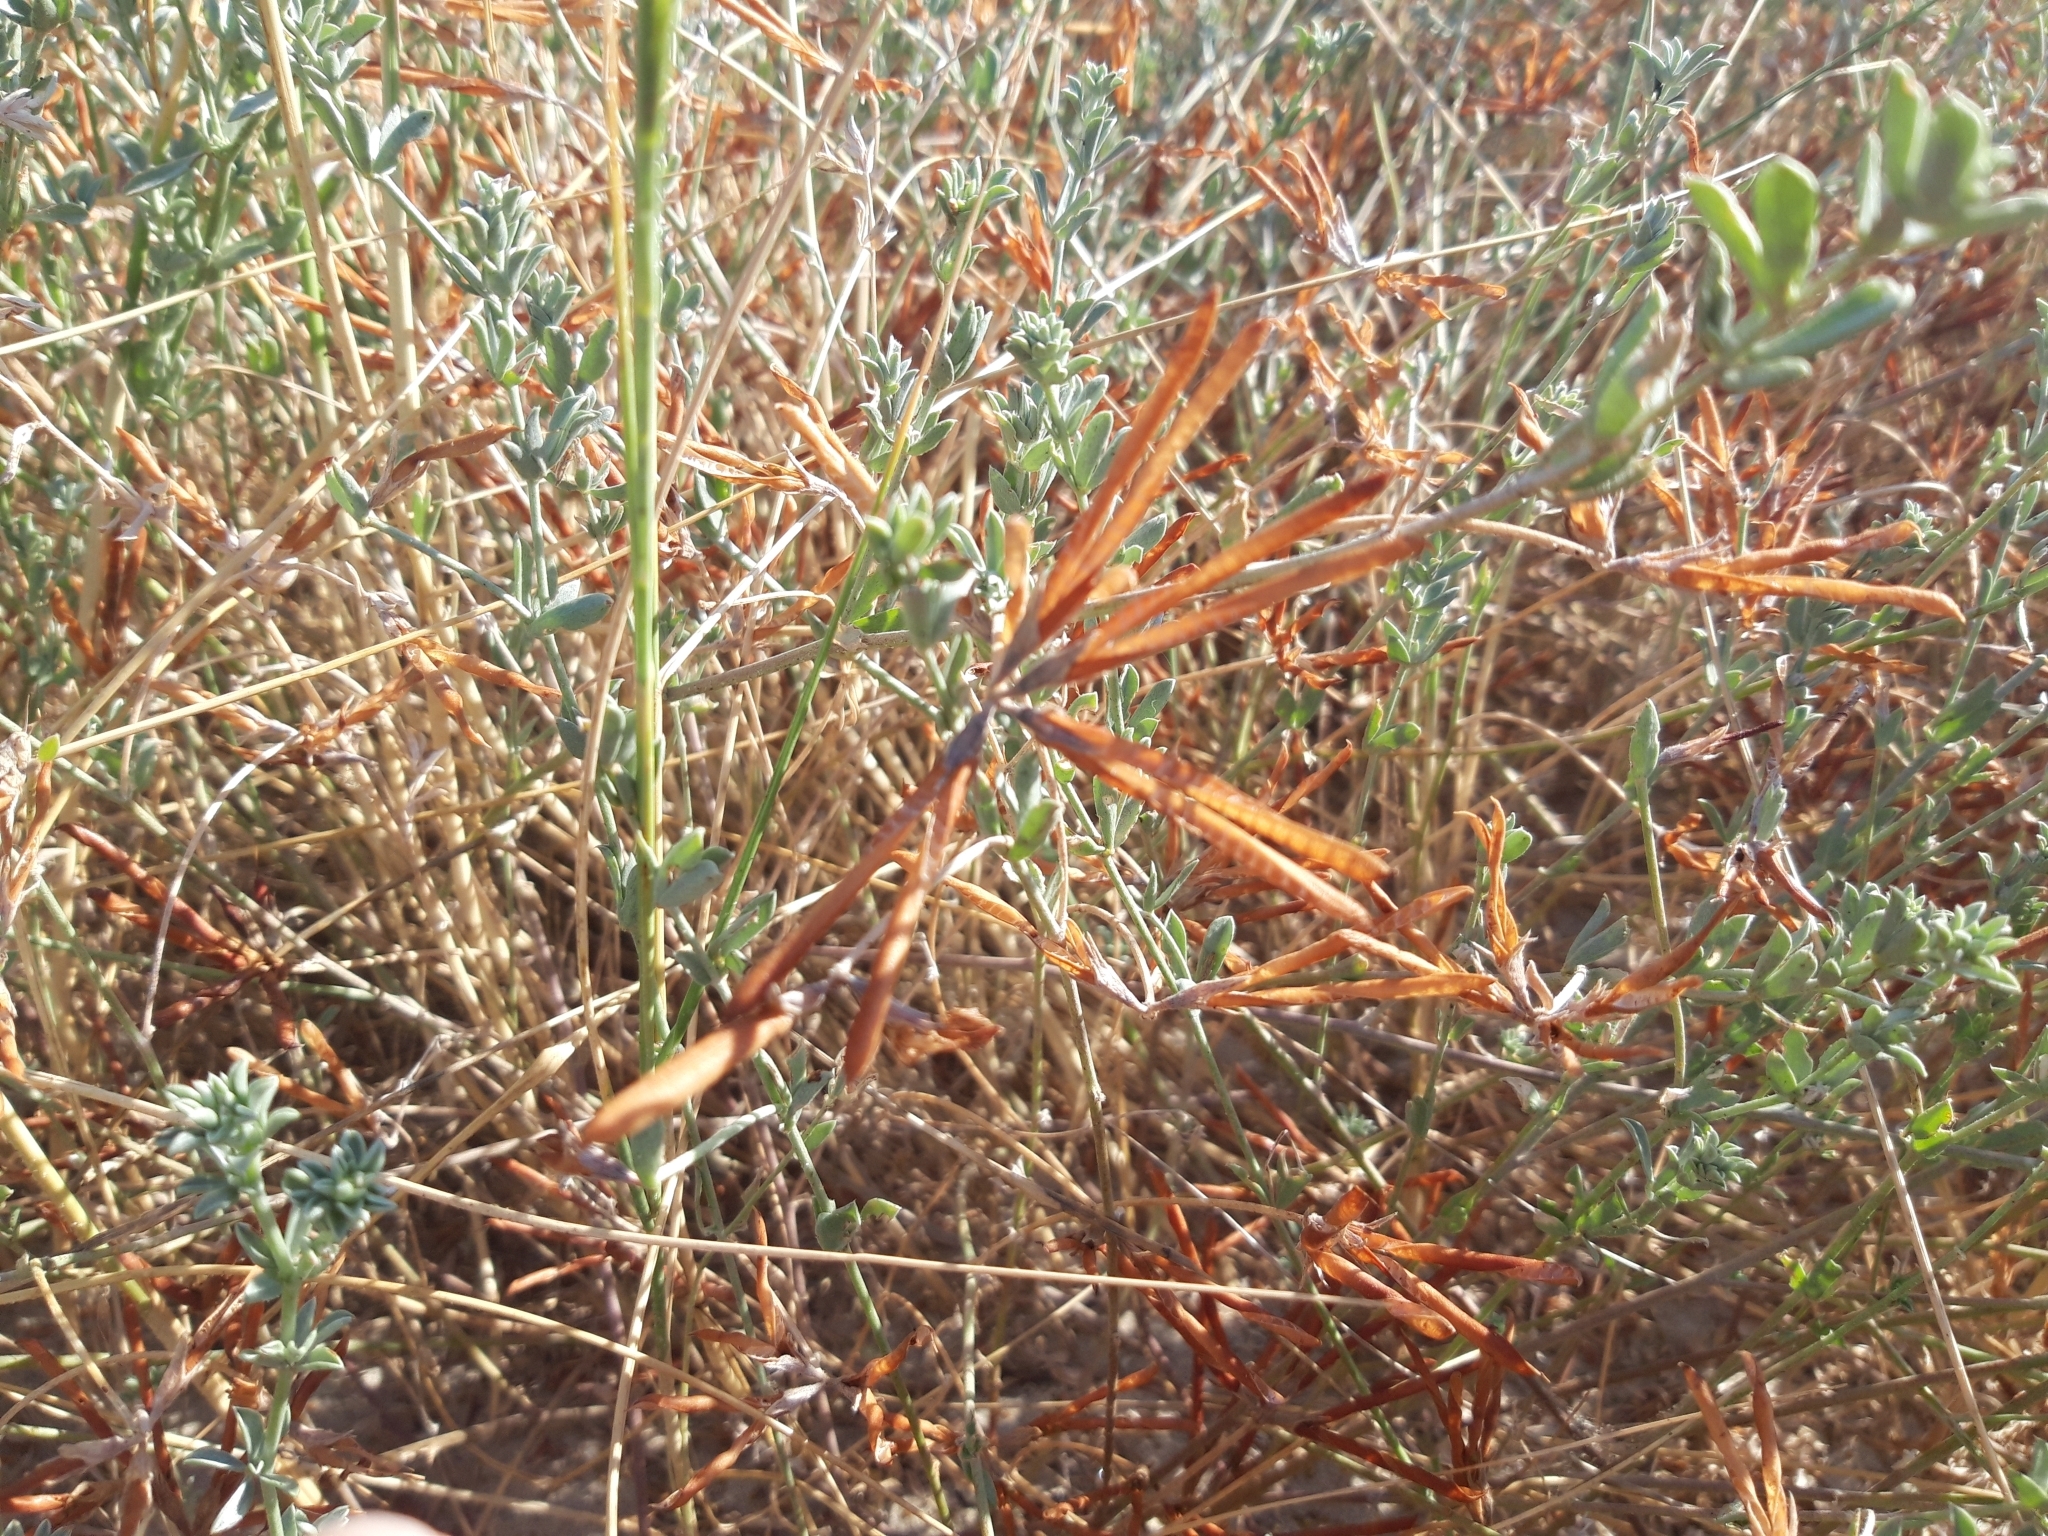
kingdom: Plantae
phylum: Tracheophyta
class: Magnoliopsida
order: Fabales
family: Fabaceae
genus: Lotus
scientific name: Lotus creticus
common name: Cretan bird's-foot trefoil
